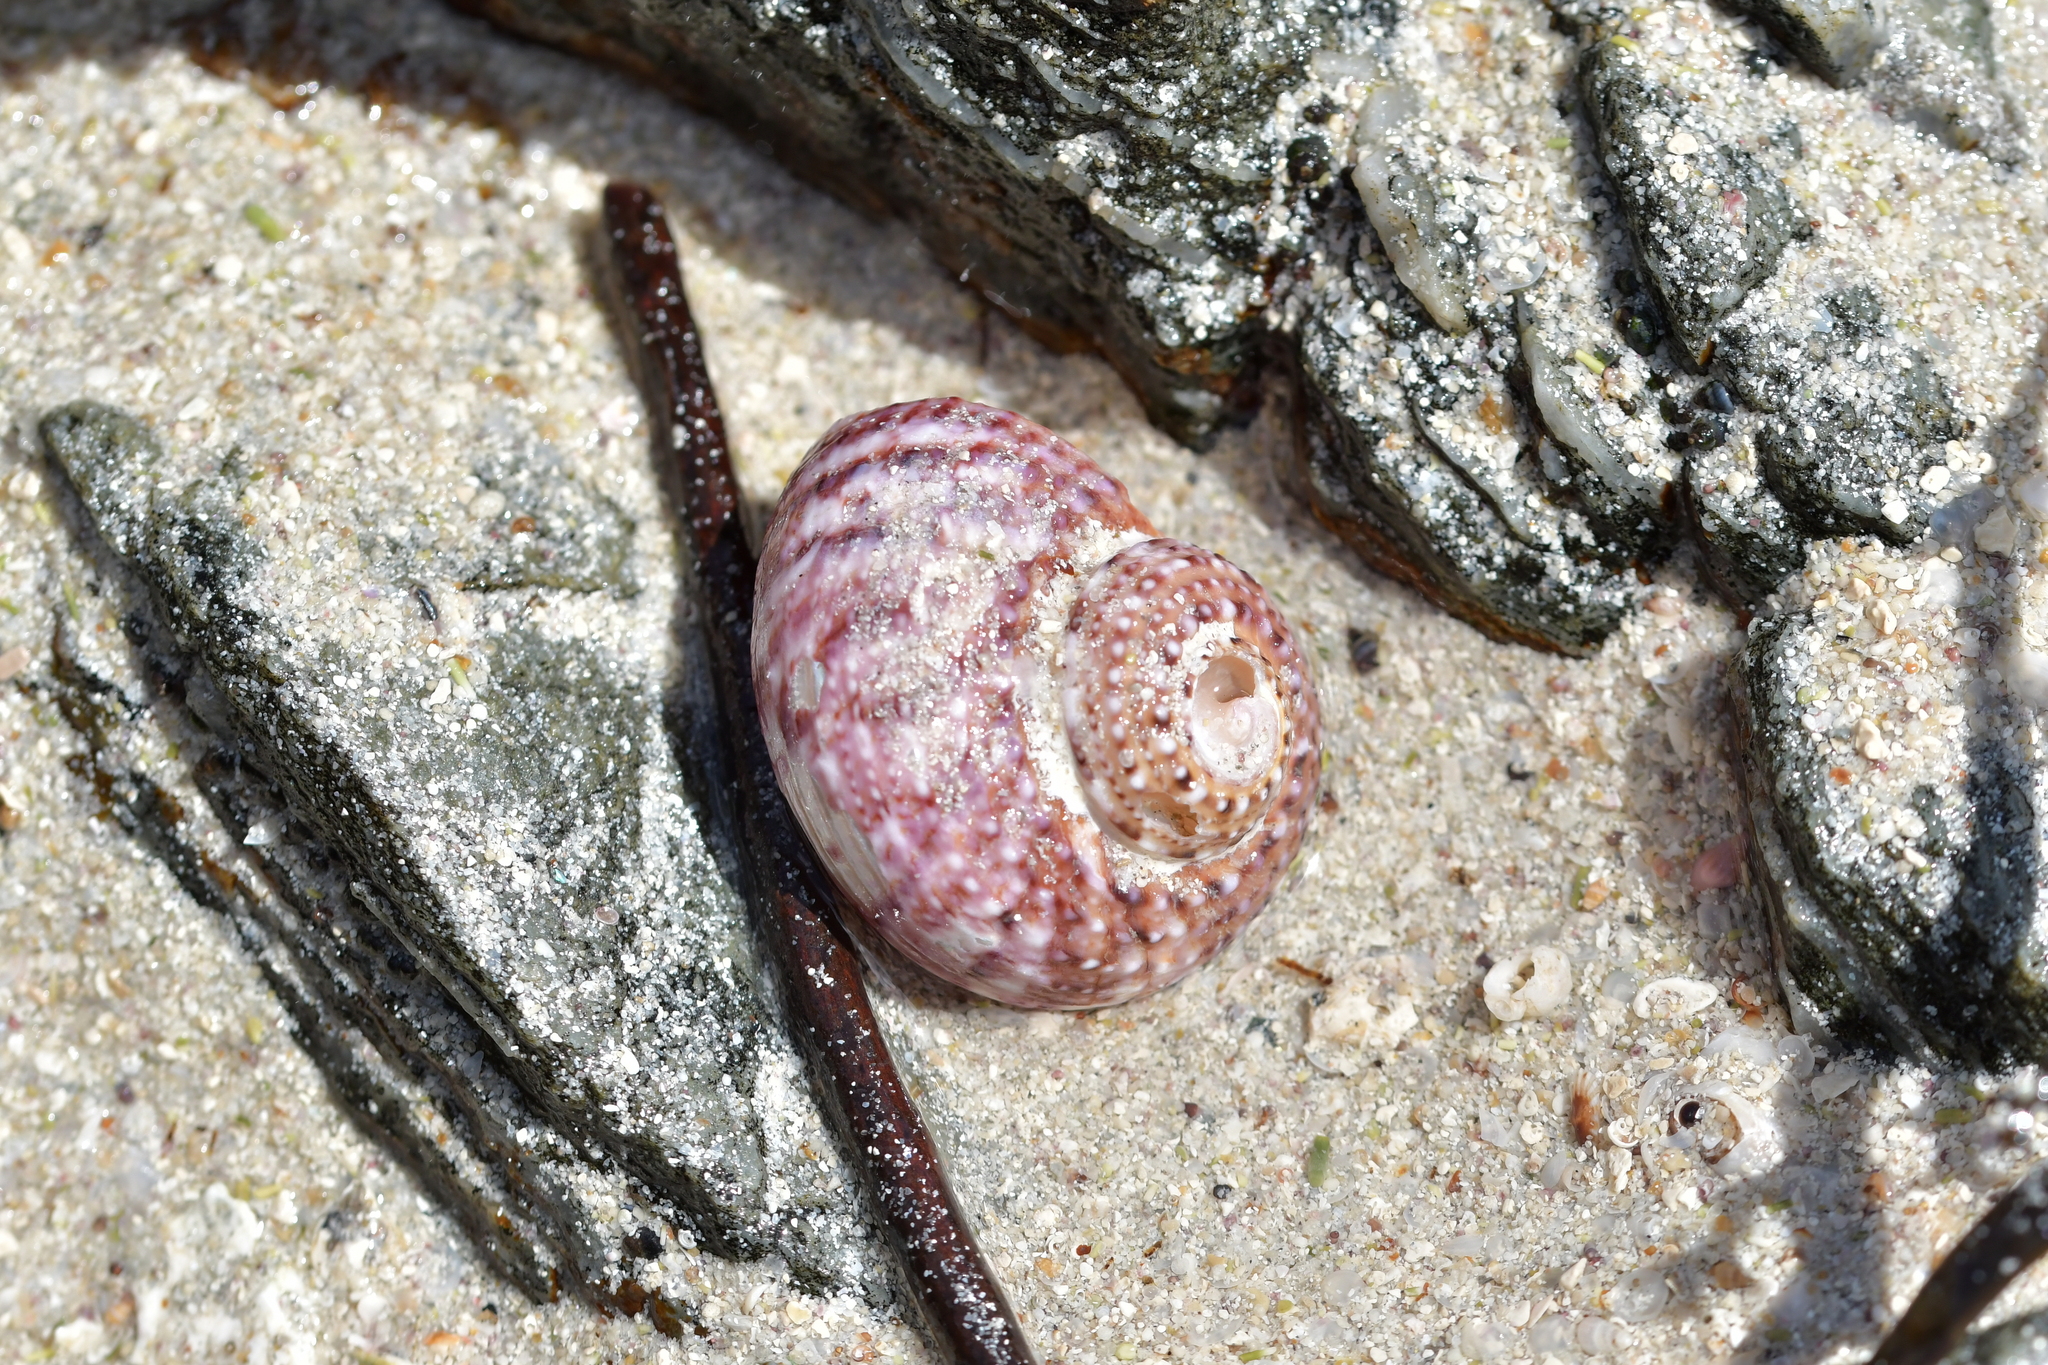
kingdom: Animalia
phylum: Mollusca
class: Gastropoda
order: Trochida
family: Turbinidae
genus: Modelia
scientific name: Modelia granosa
